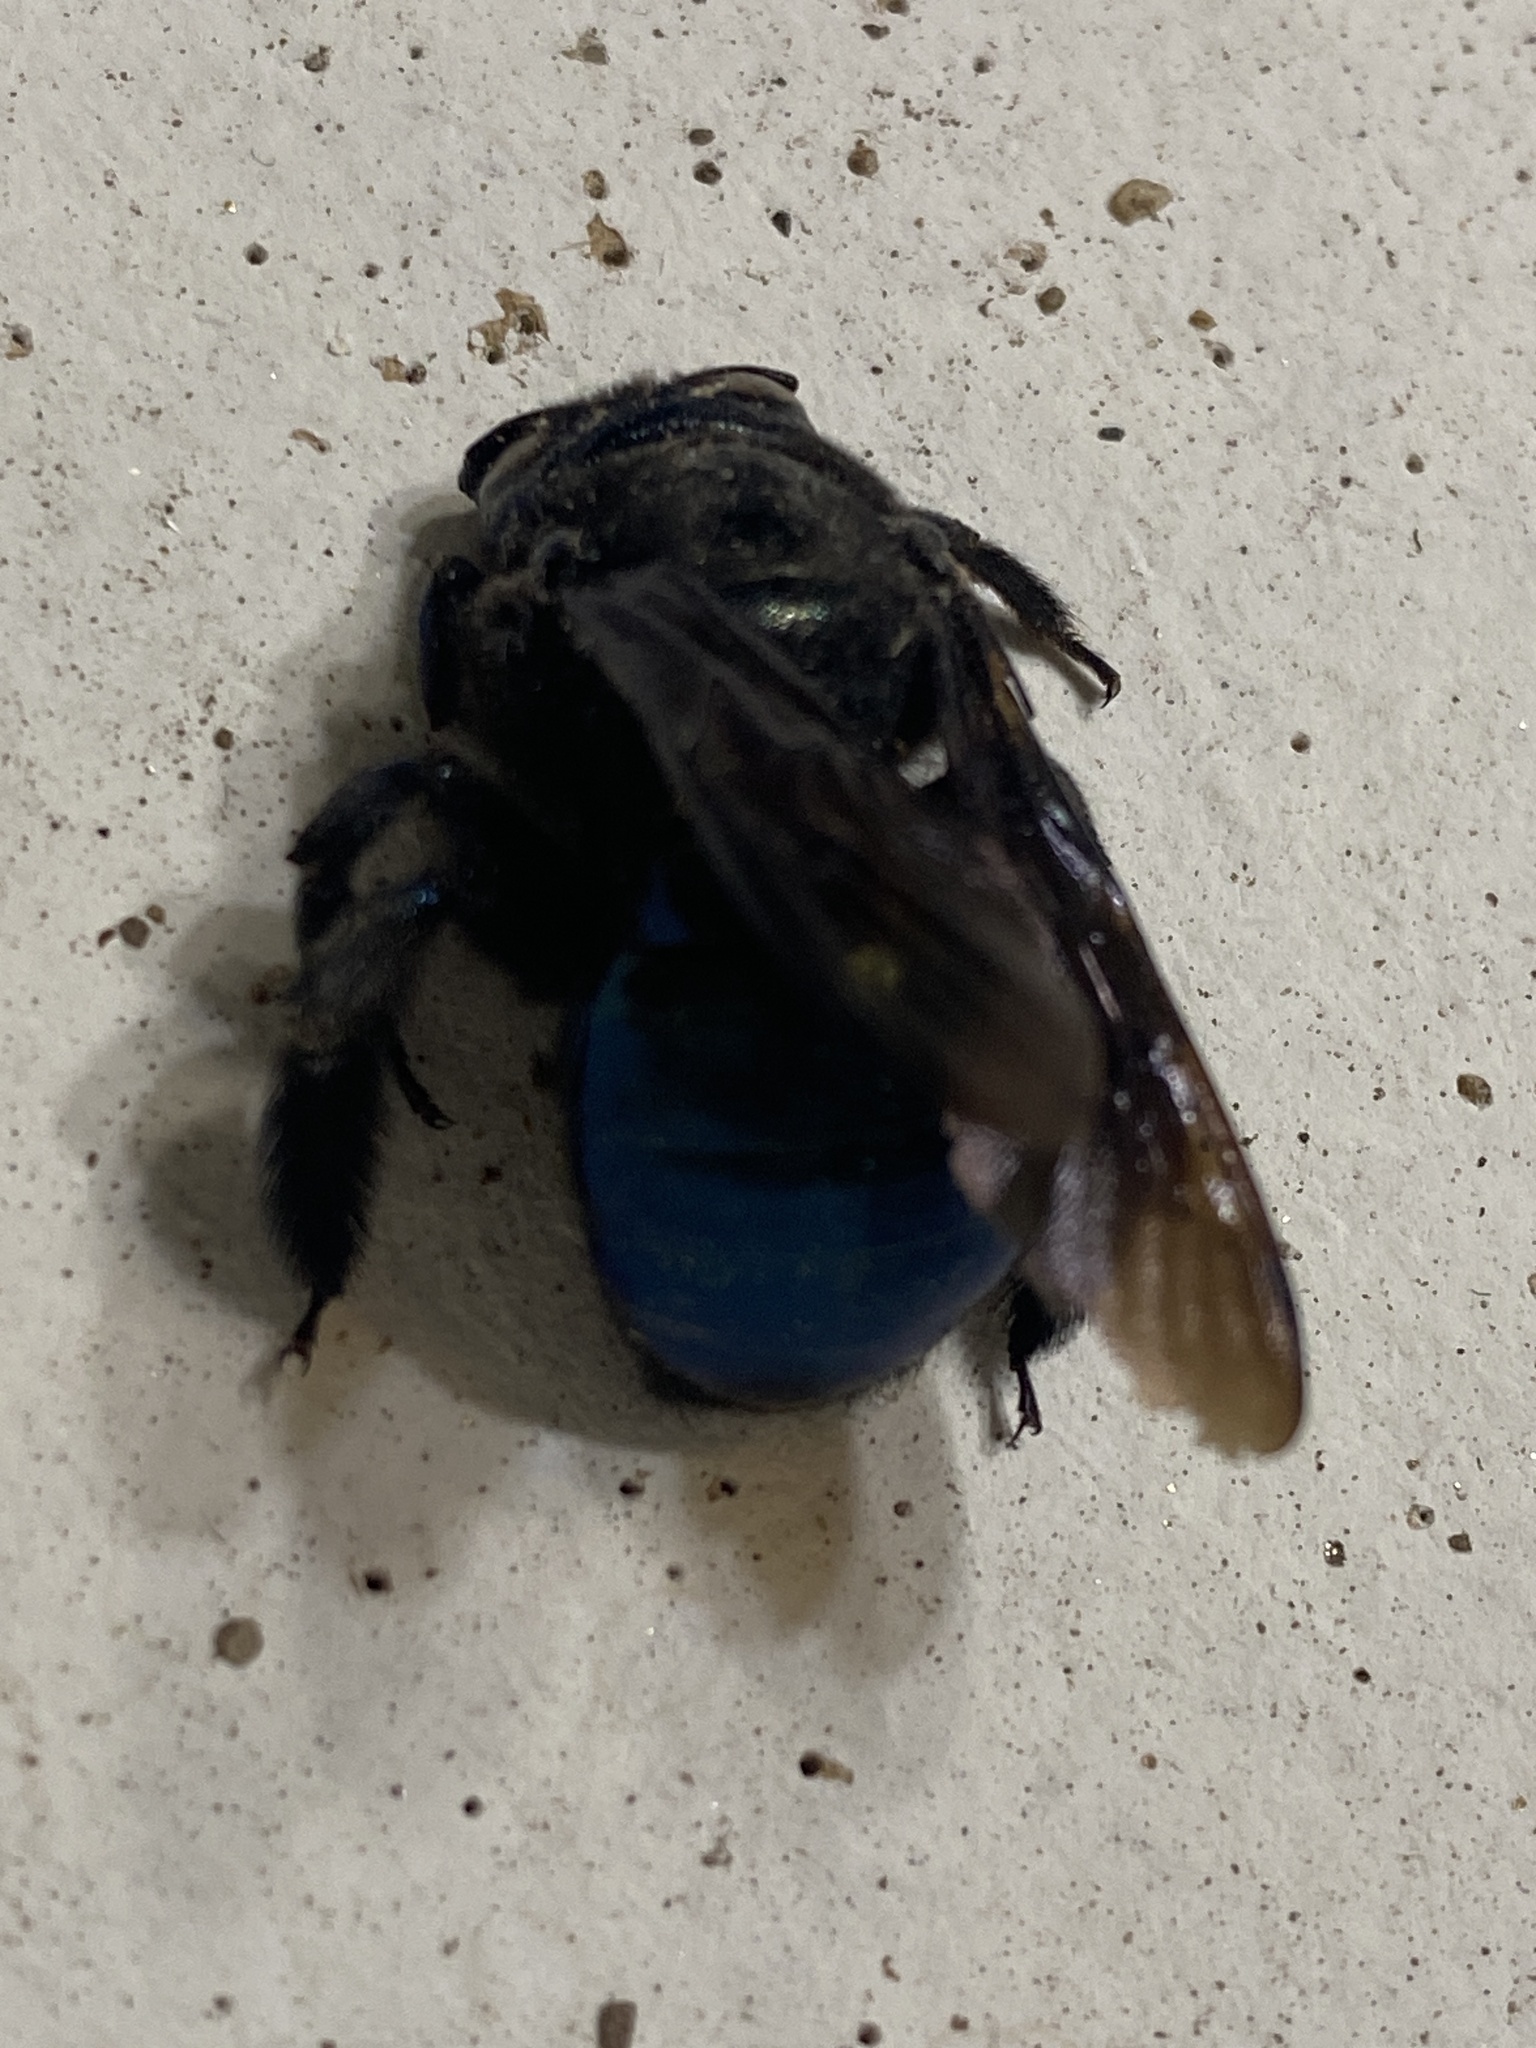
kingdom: Animalia
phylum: Arthropoda
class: Insecta
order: Hymenoptera
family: Apidae
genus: Xylocopa
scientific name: Xylocopa californica
